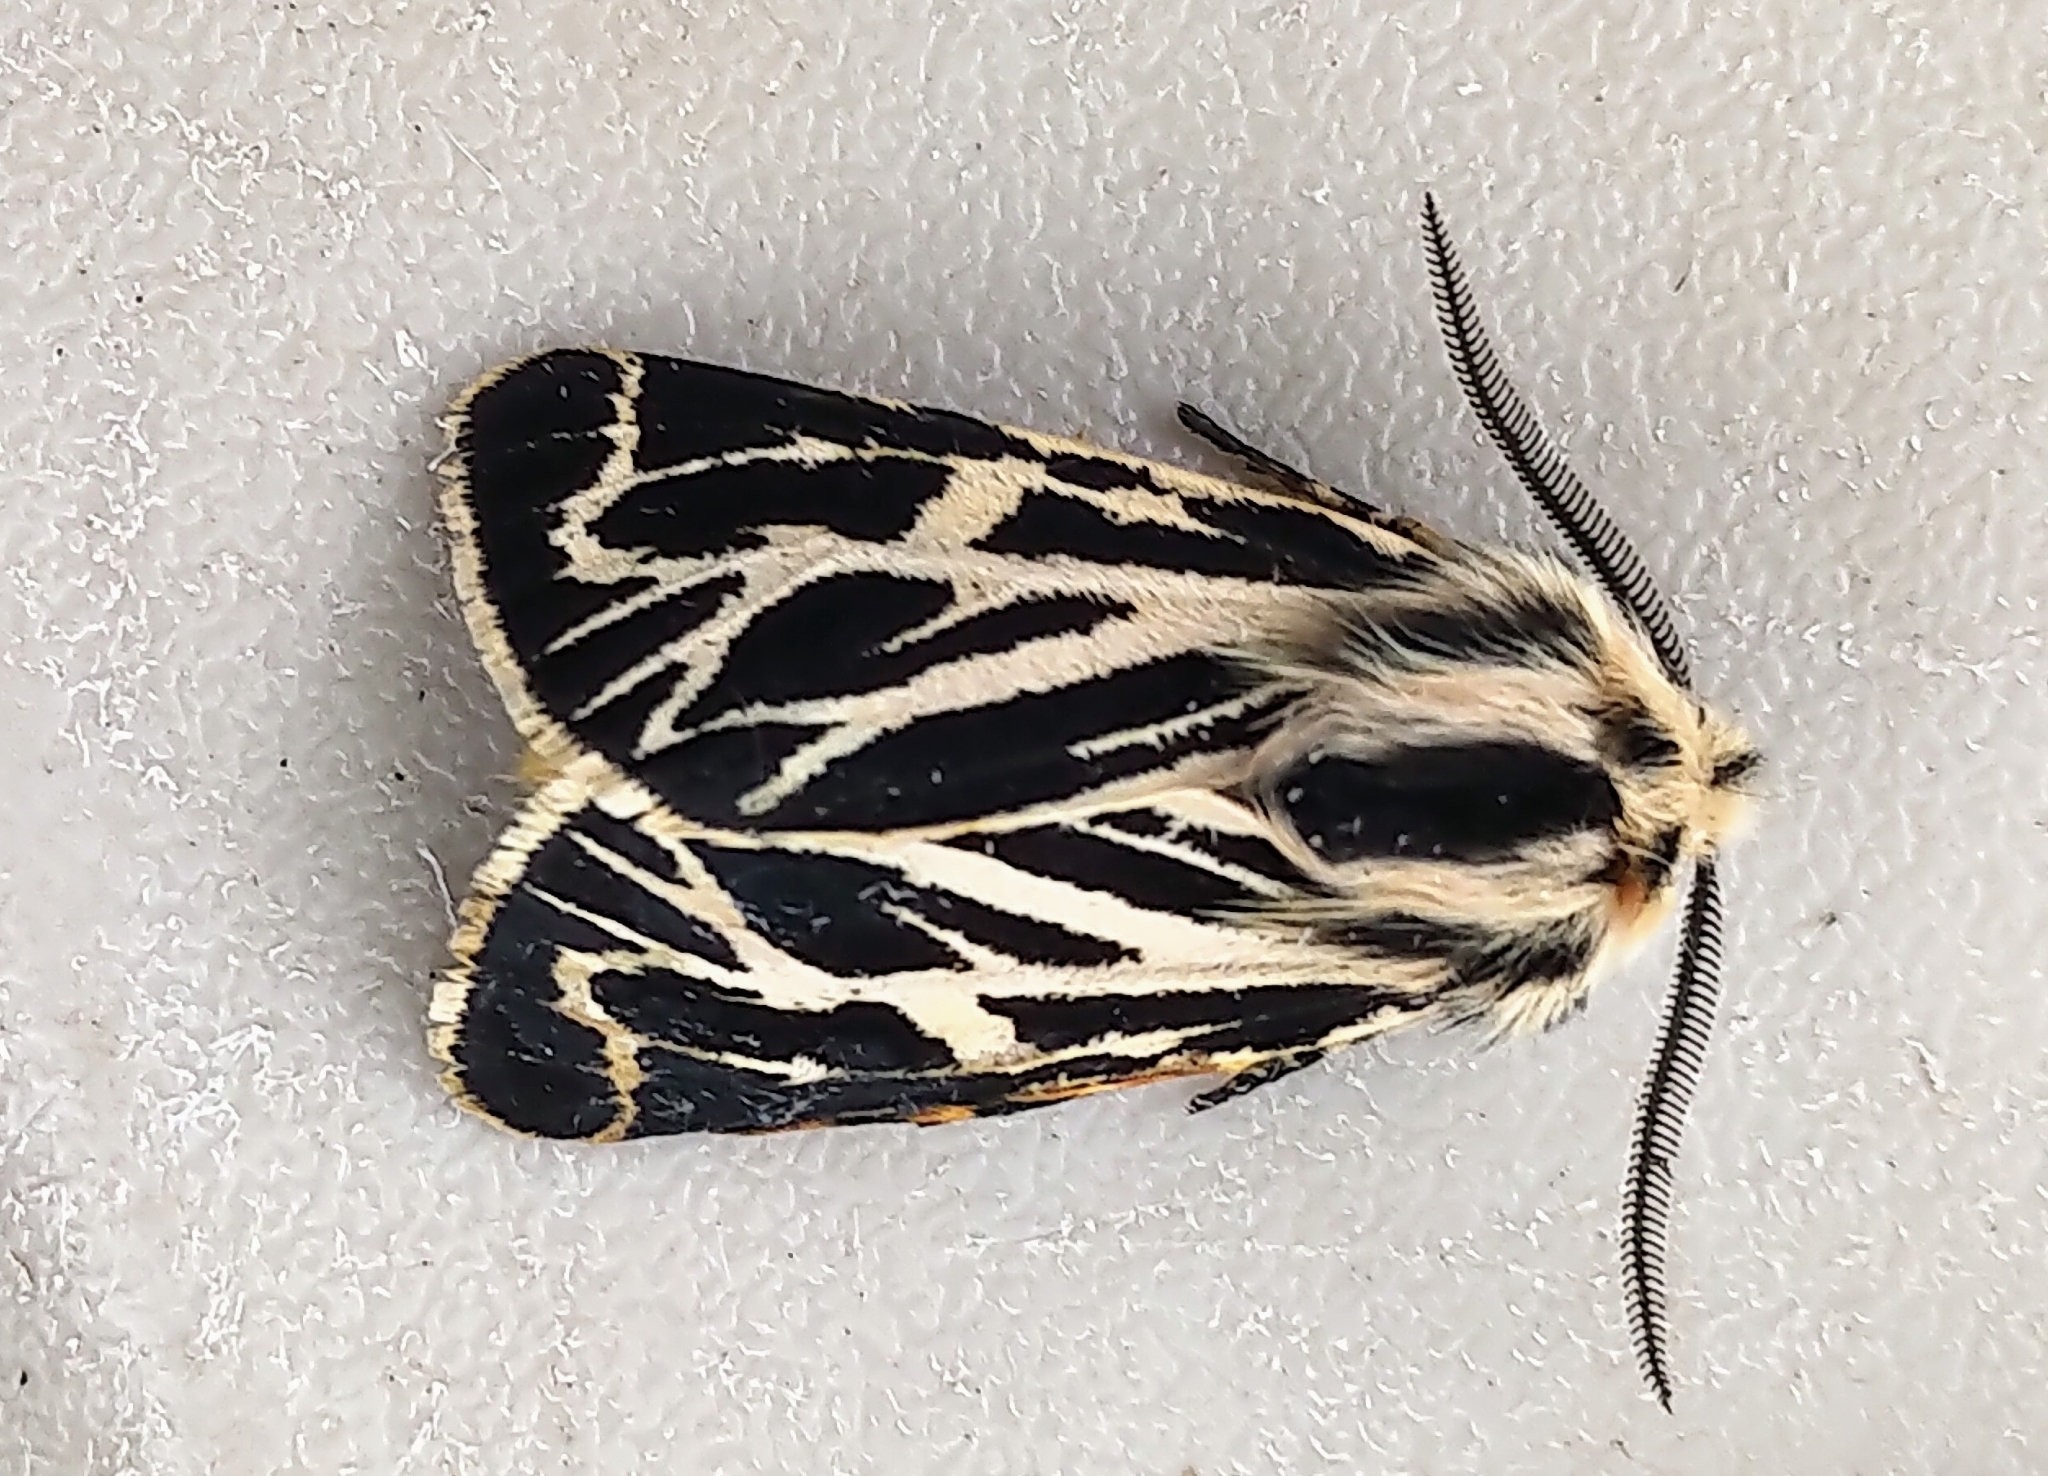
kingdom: Animalia
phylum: Arthropoda
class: Insecta
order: Lepidoptera
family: Erebidae
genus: Apantesis
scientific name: Apantesis obliterata
